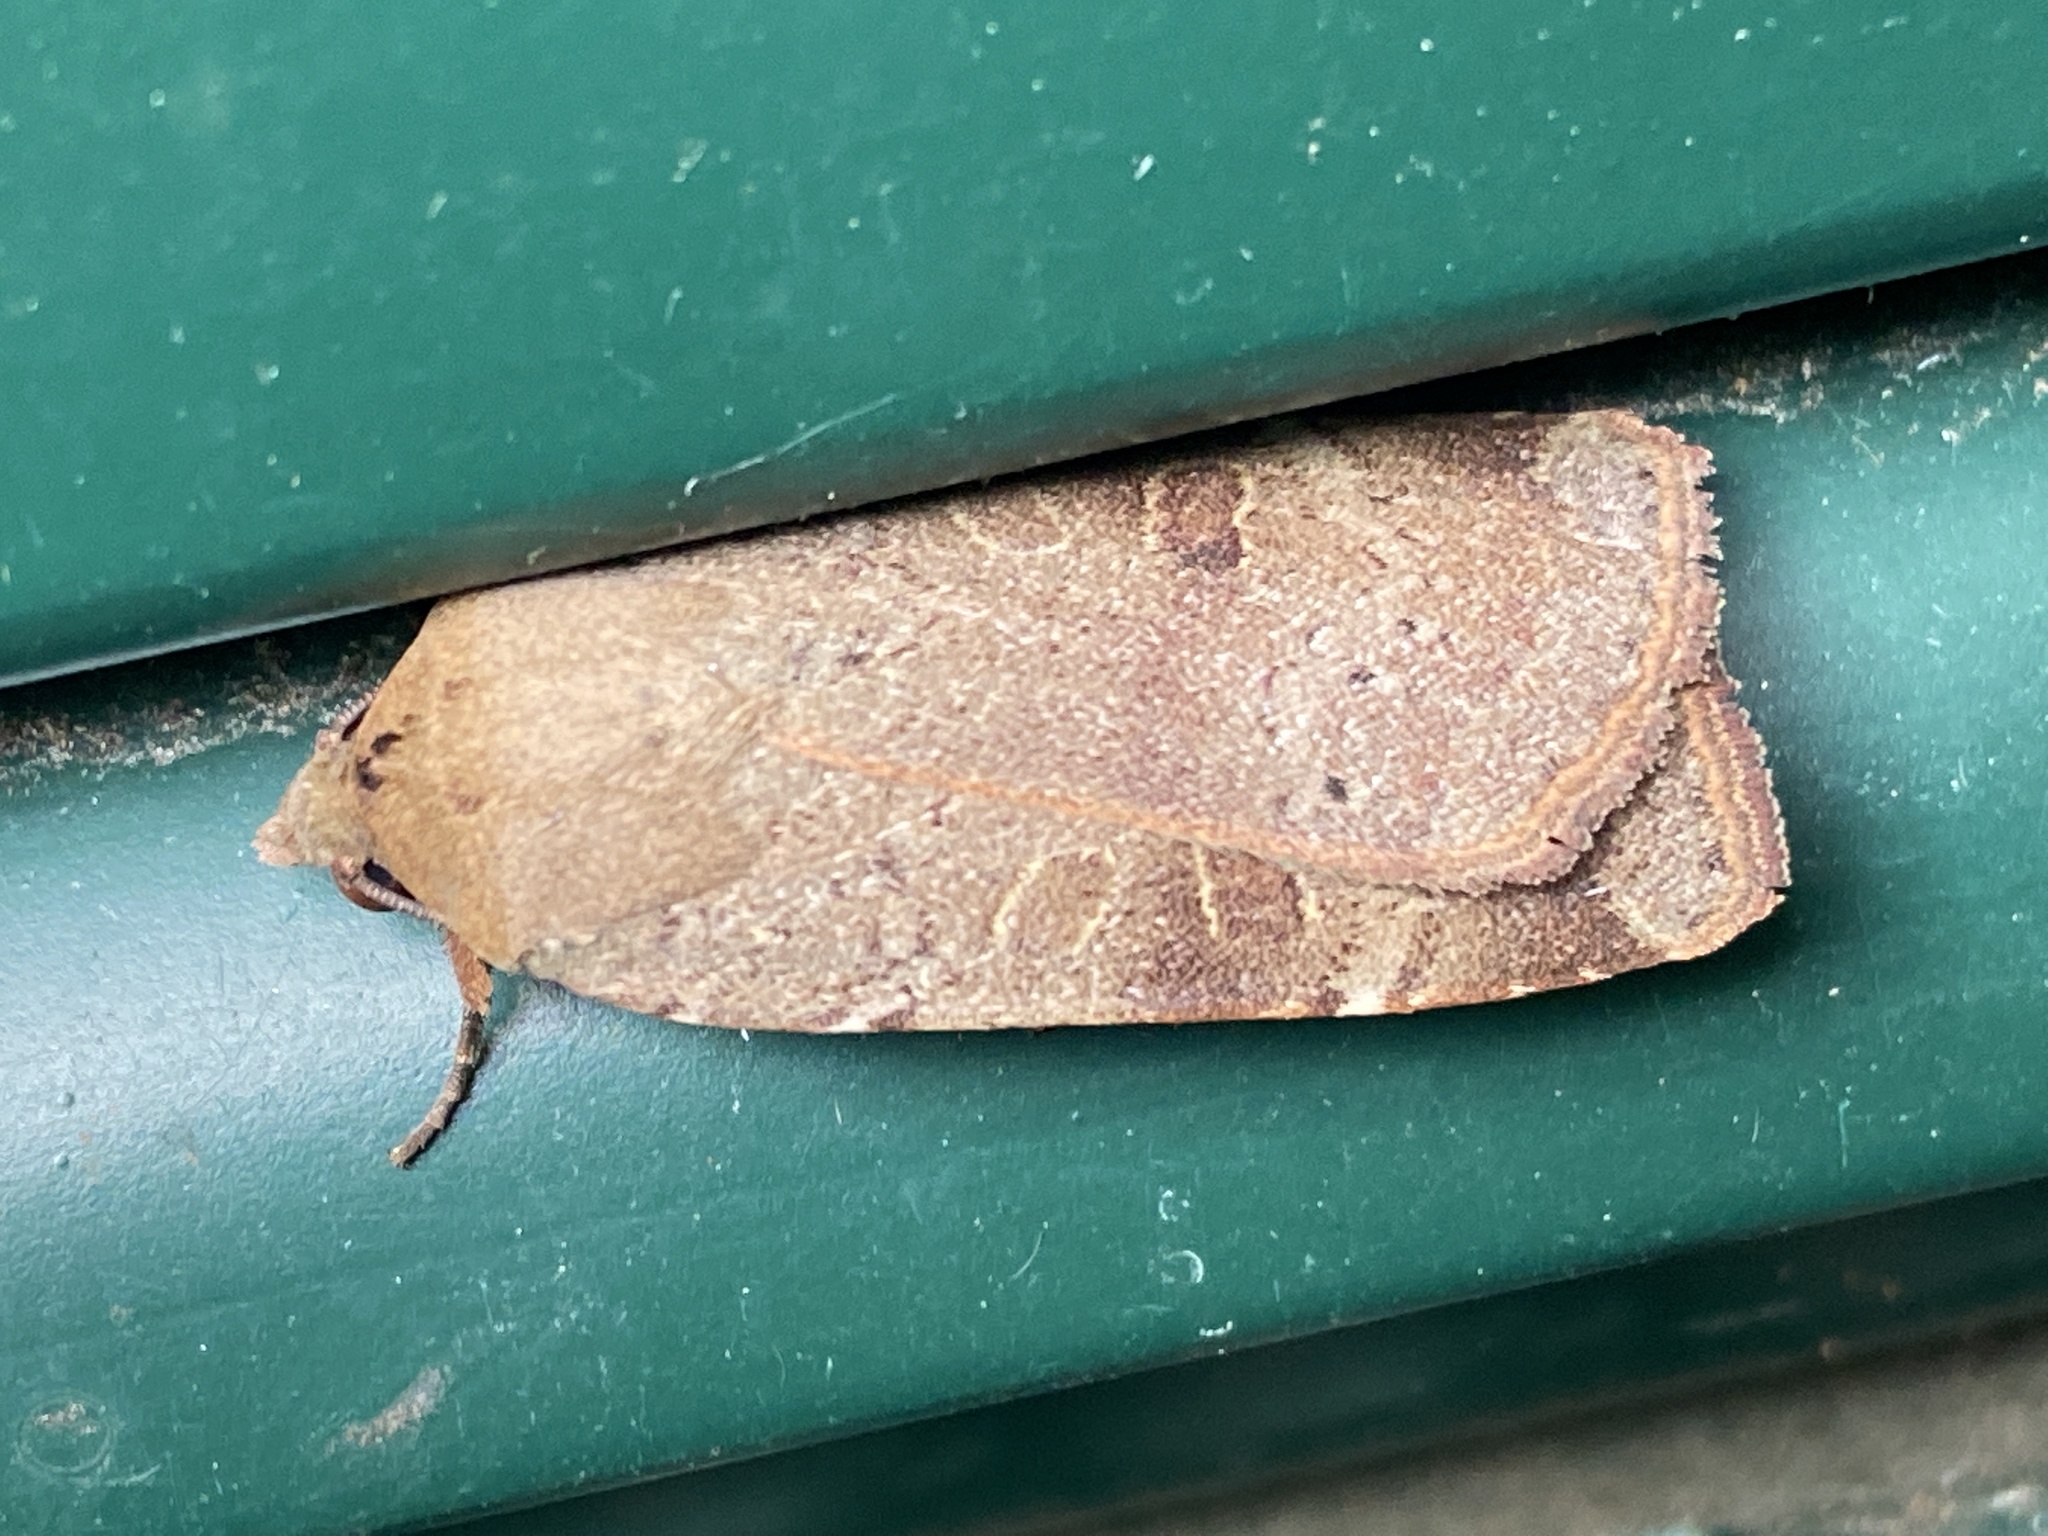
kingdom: Animalia
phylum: Arthropoda
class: Insecta
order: Lepidoptera
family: Noctuidae
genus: Noctua
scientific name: Noctua comes
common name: Lesser yellow underwing
